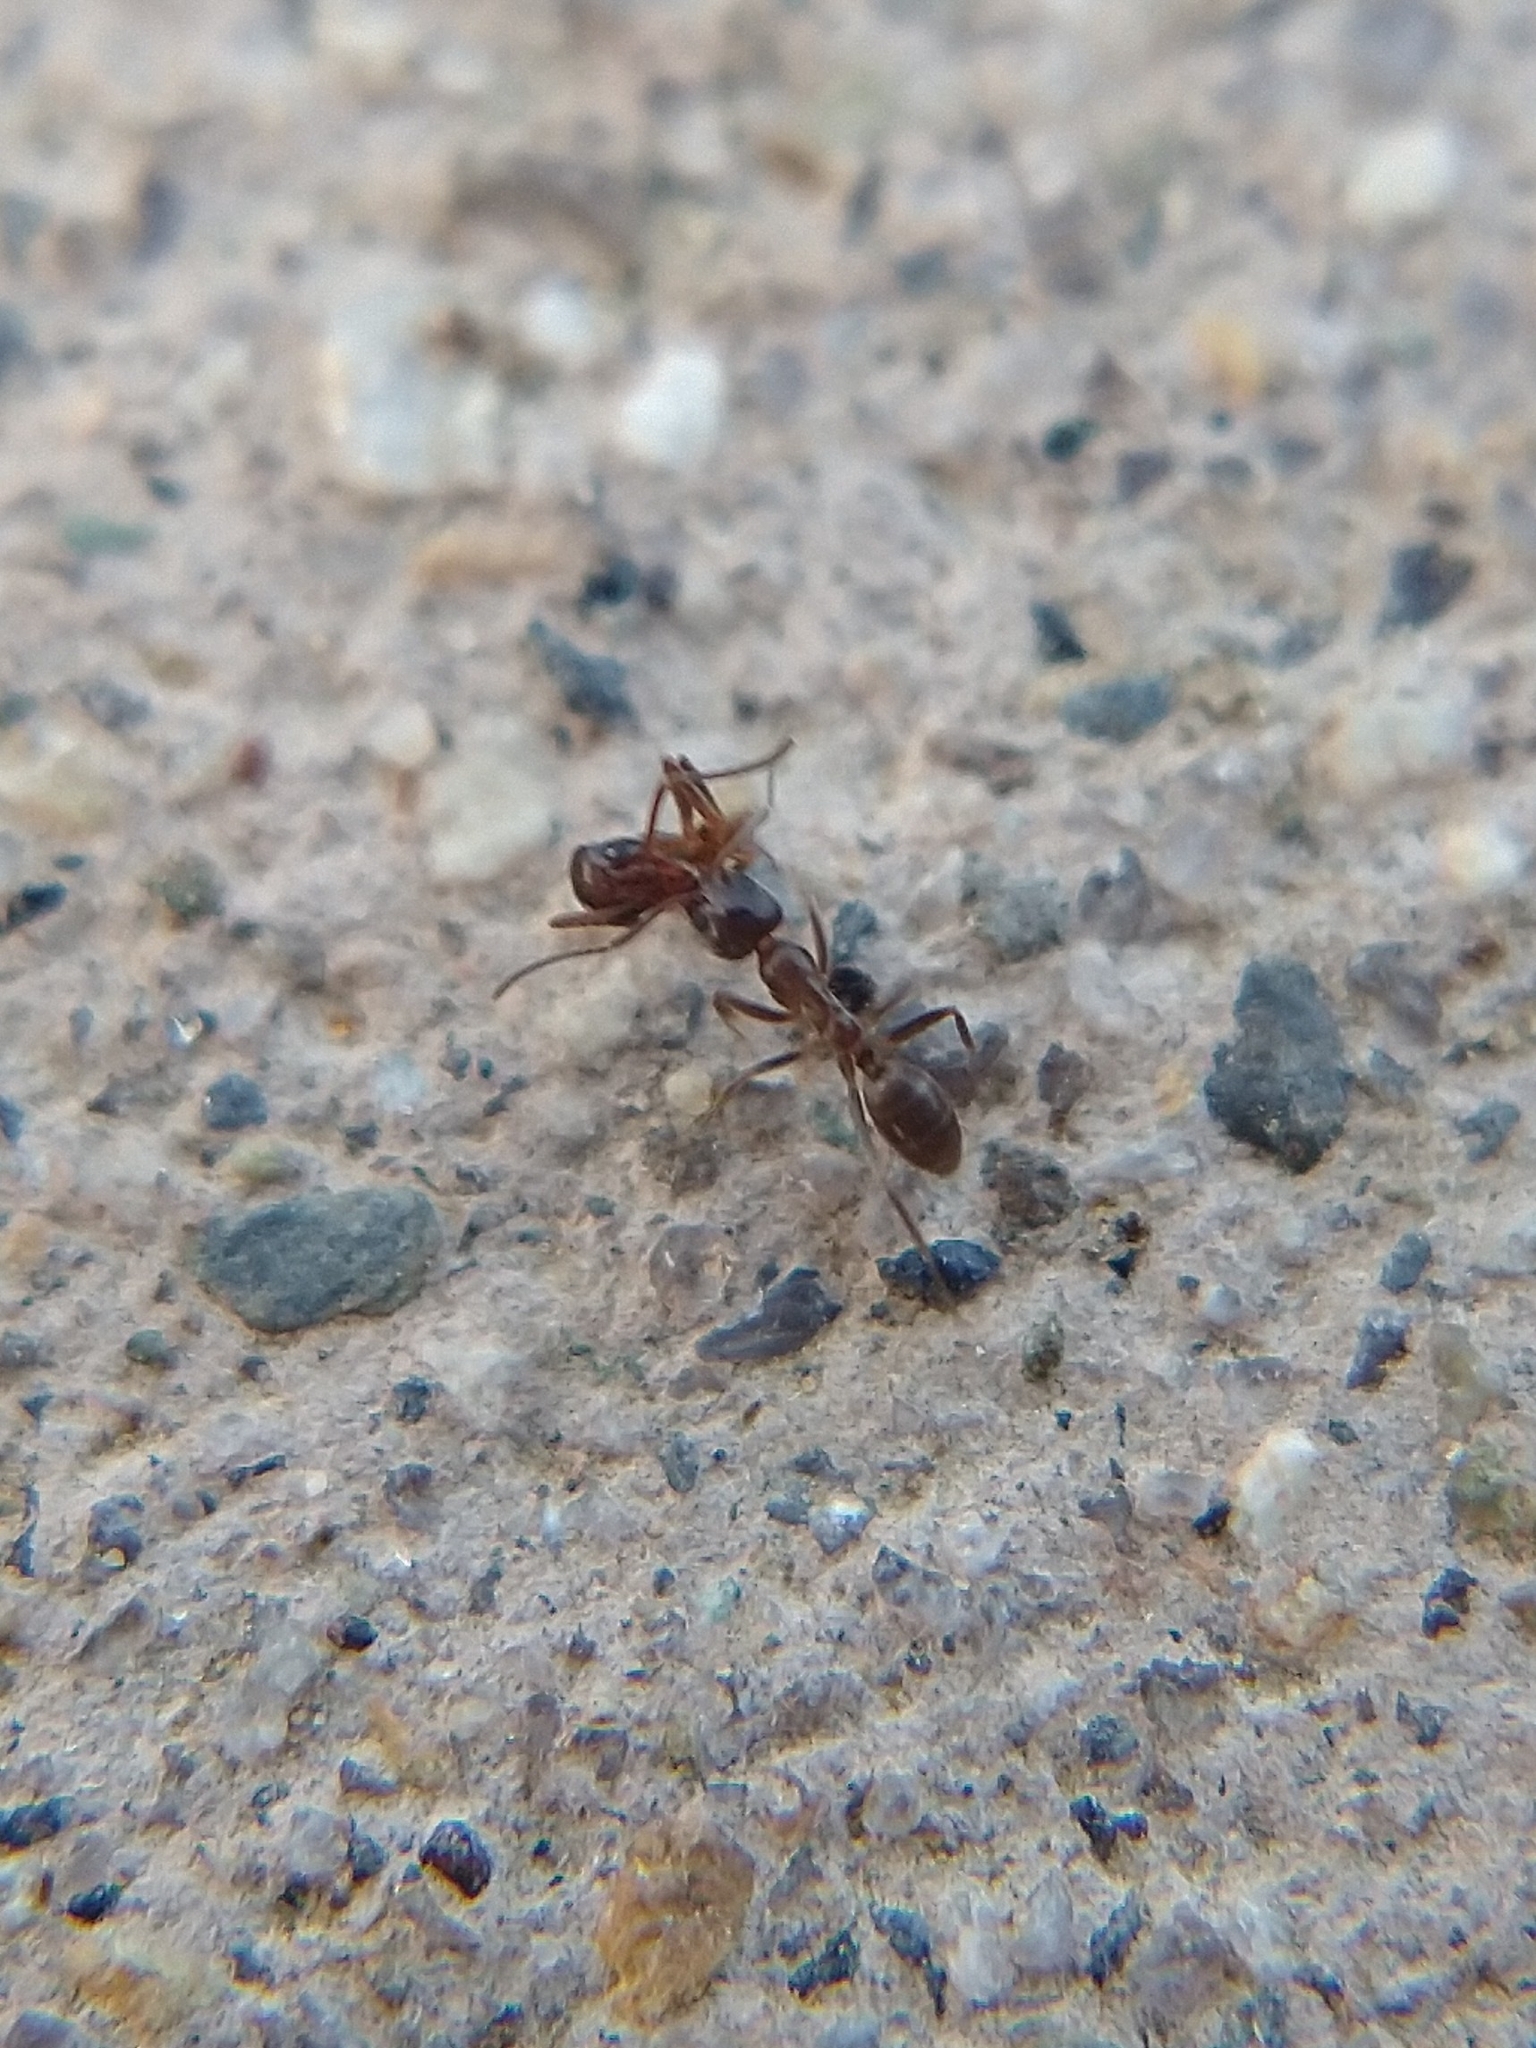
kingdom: Animalia
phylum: Arthropoda
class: Insecta
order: Hymenoptera
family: Formicidae
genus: Linepithema
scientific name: Linepithema humile
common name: Argentine ant
